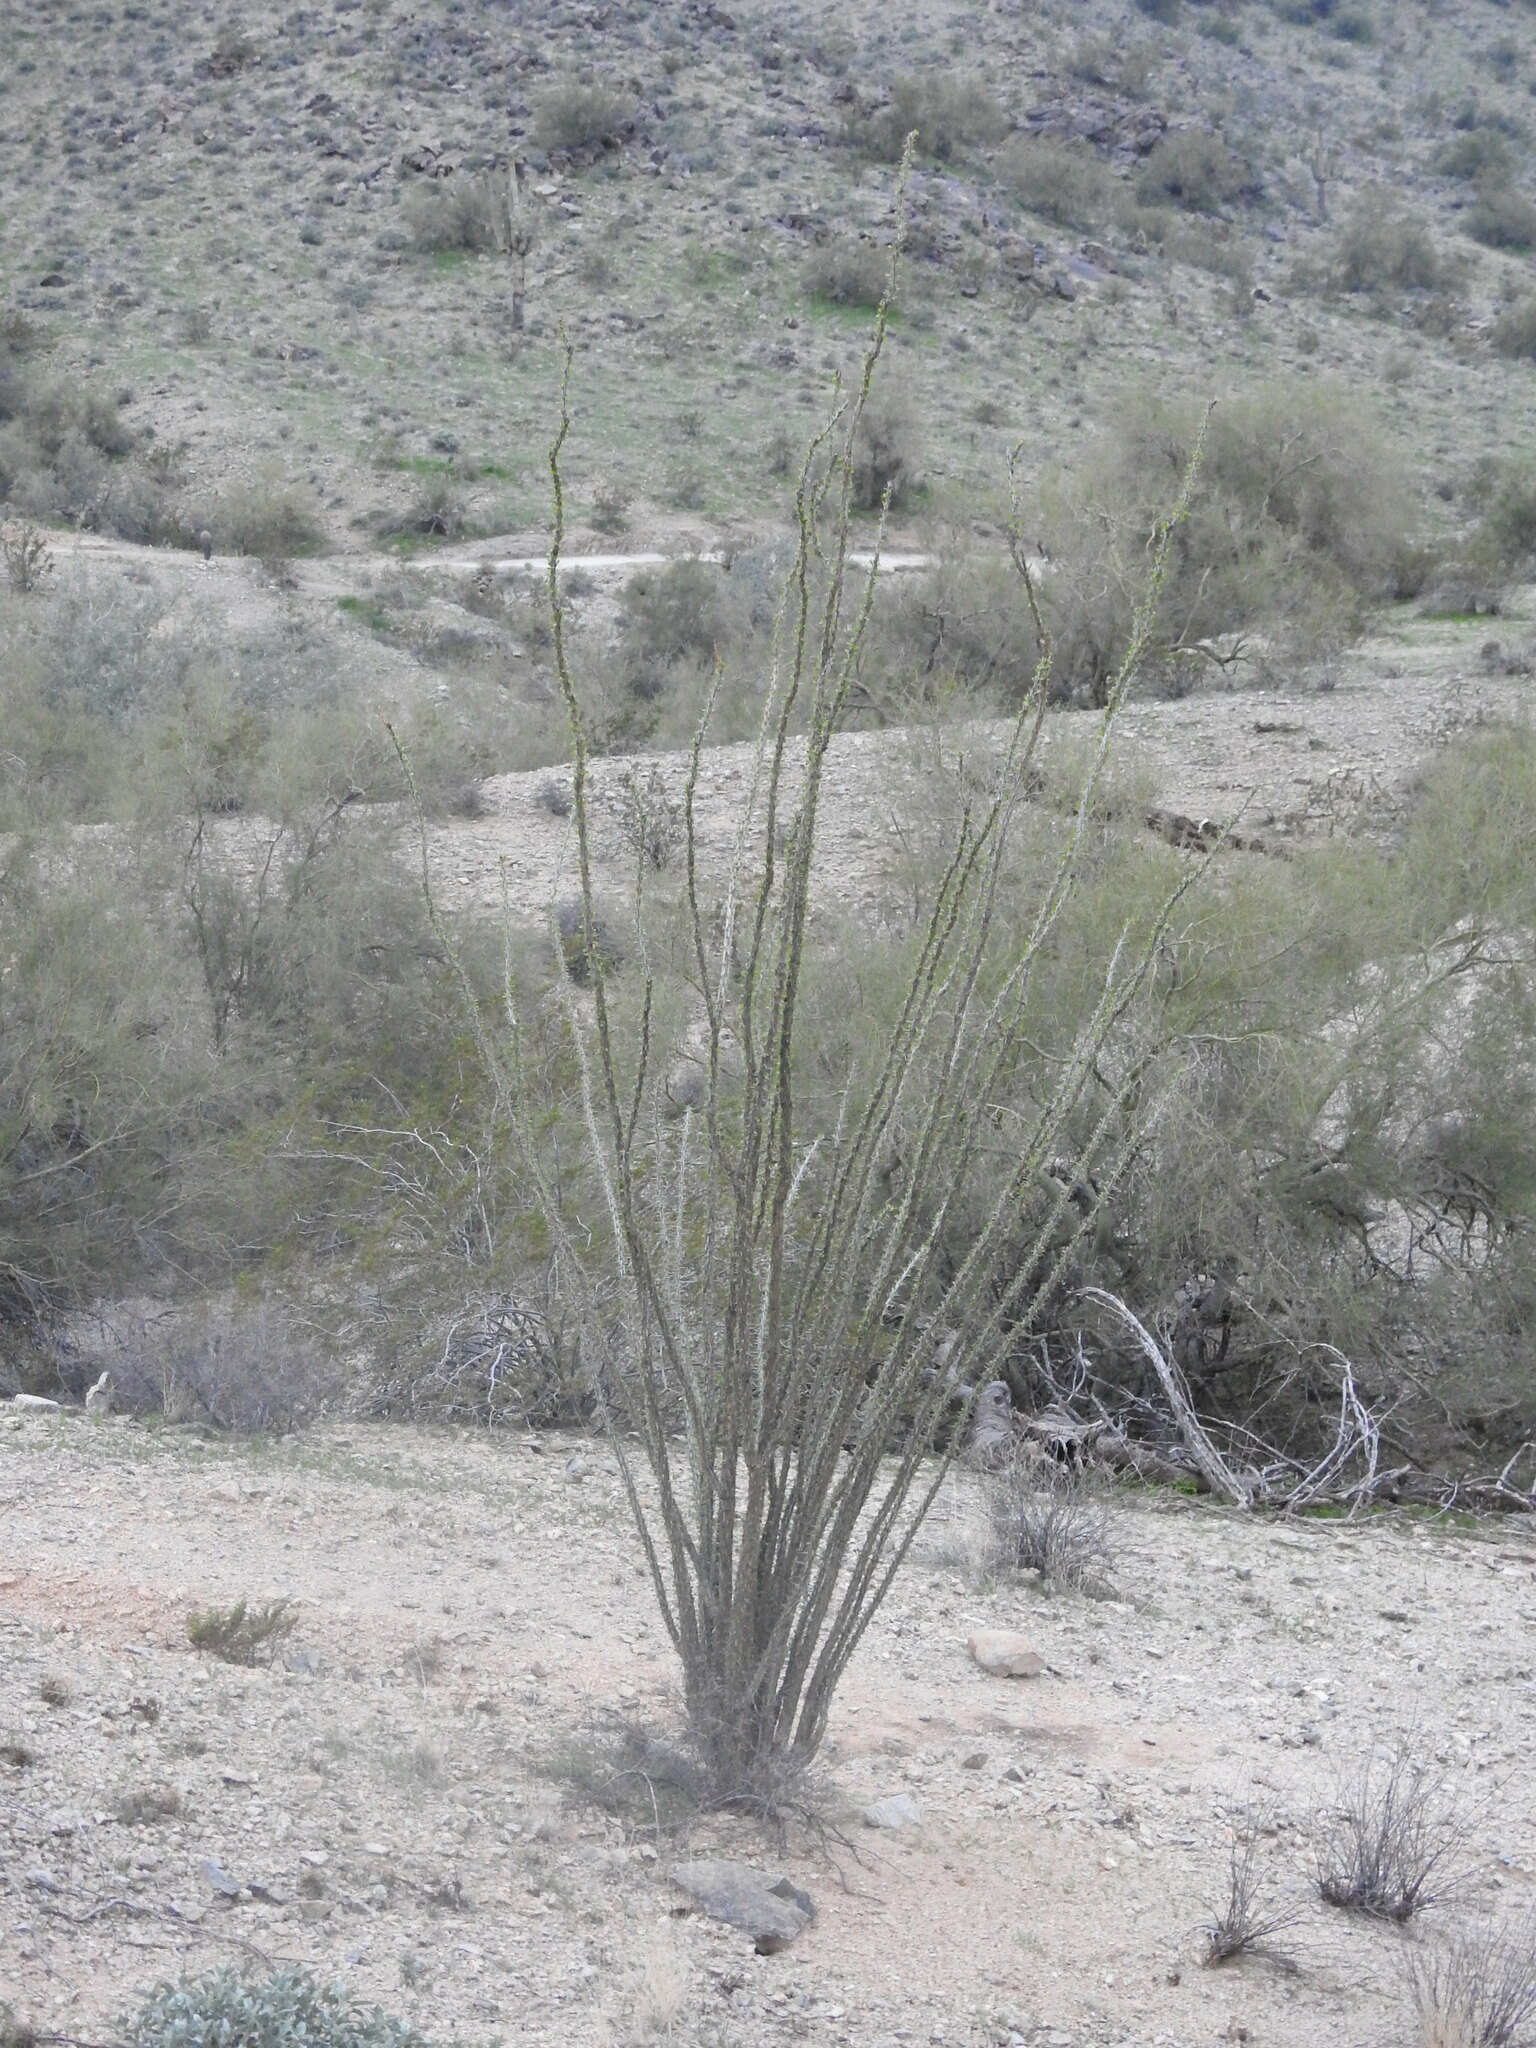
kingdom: Plantae
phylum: Tracheophyta
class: Magnoliopsida
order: Ericales
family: Fouquieriaceae
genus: Fouquieria
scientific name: Fouquieria splendens
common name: Vine-cactus
